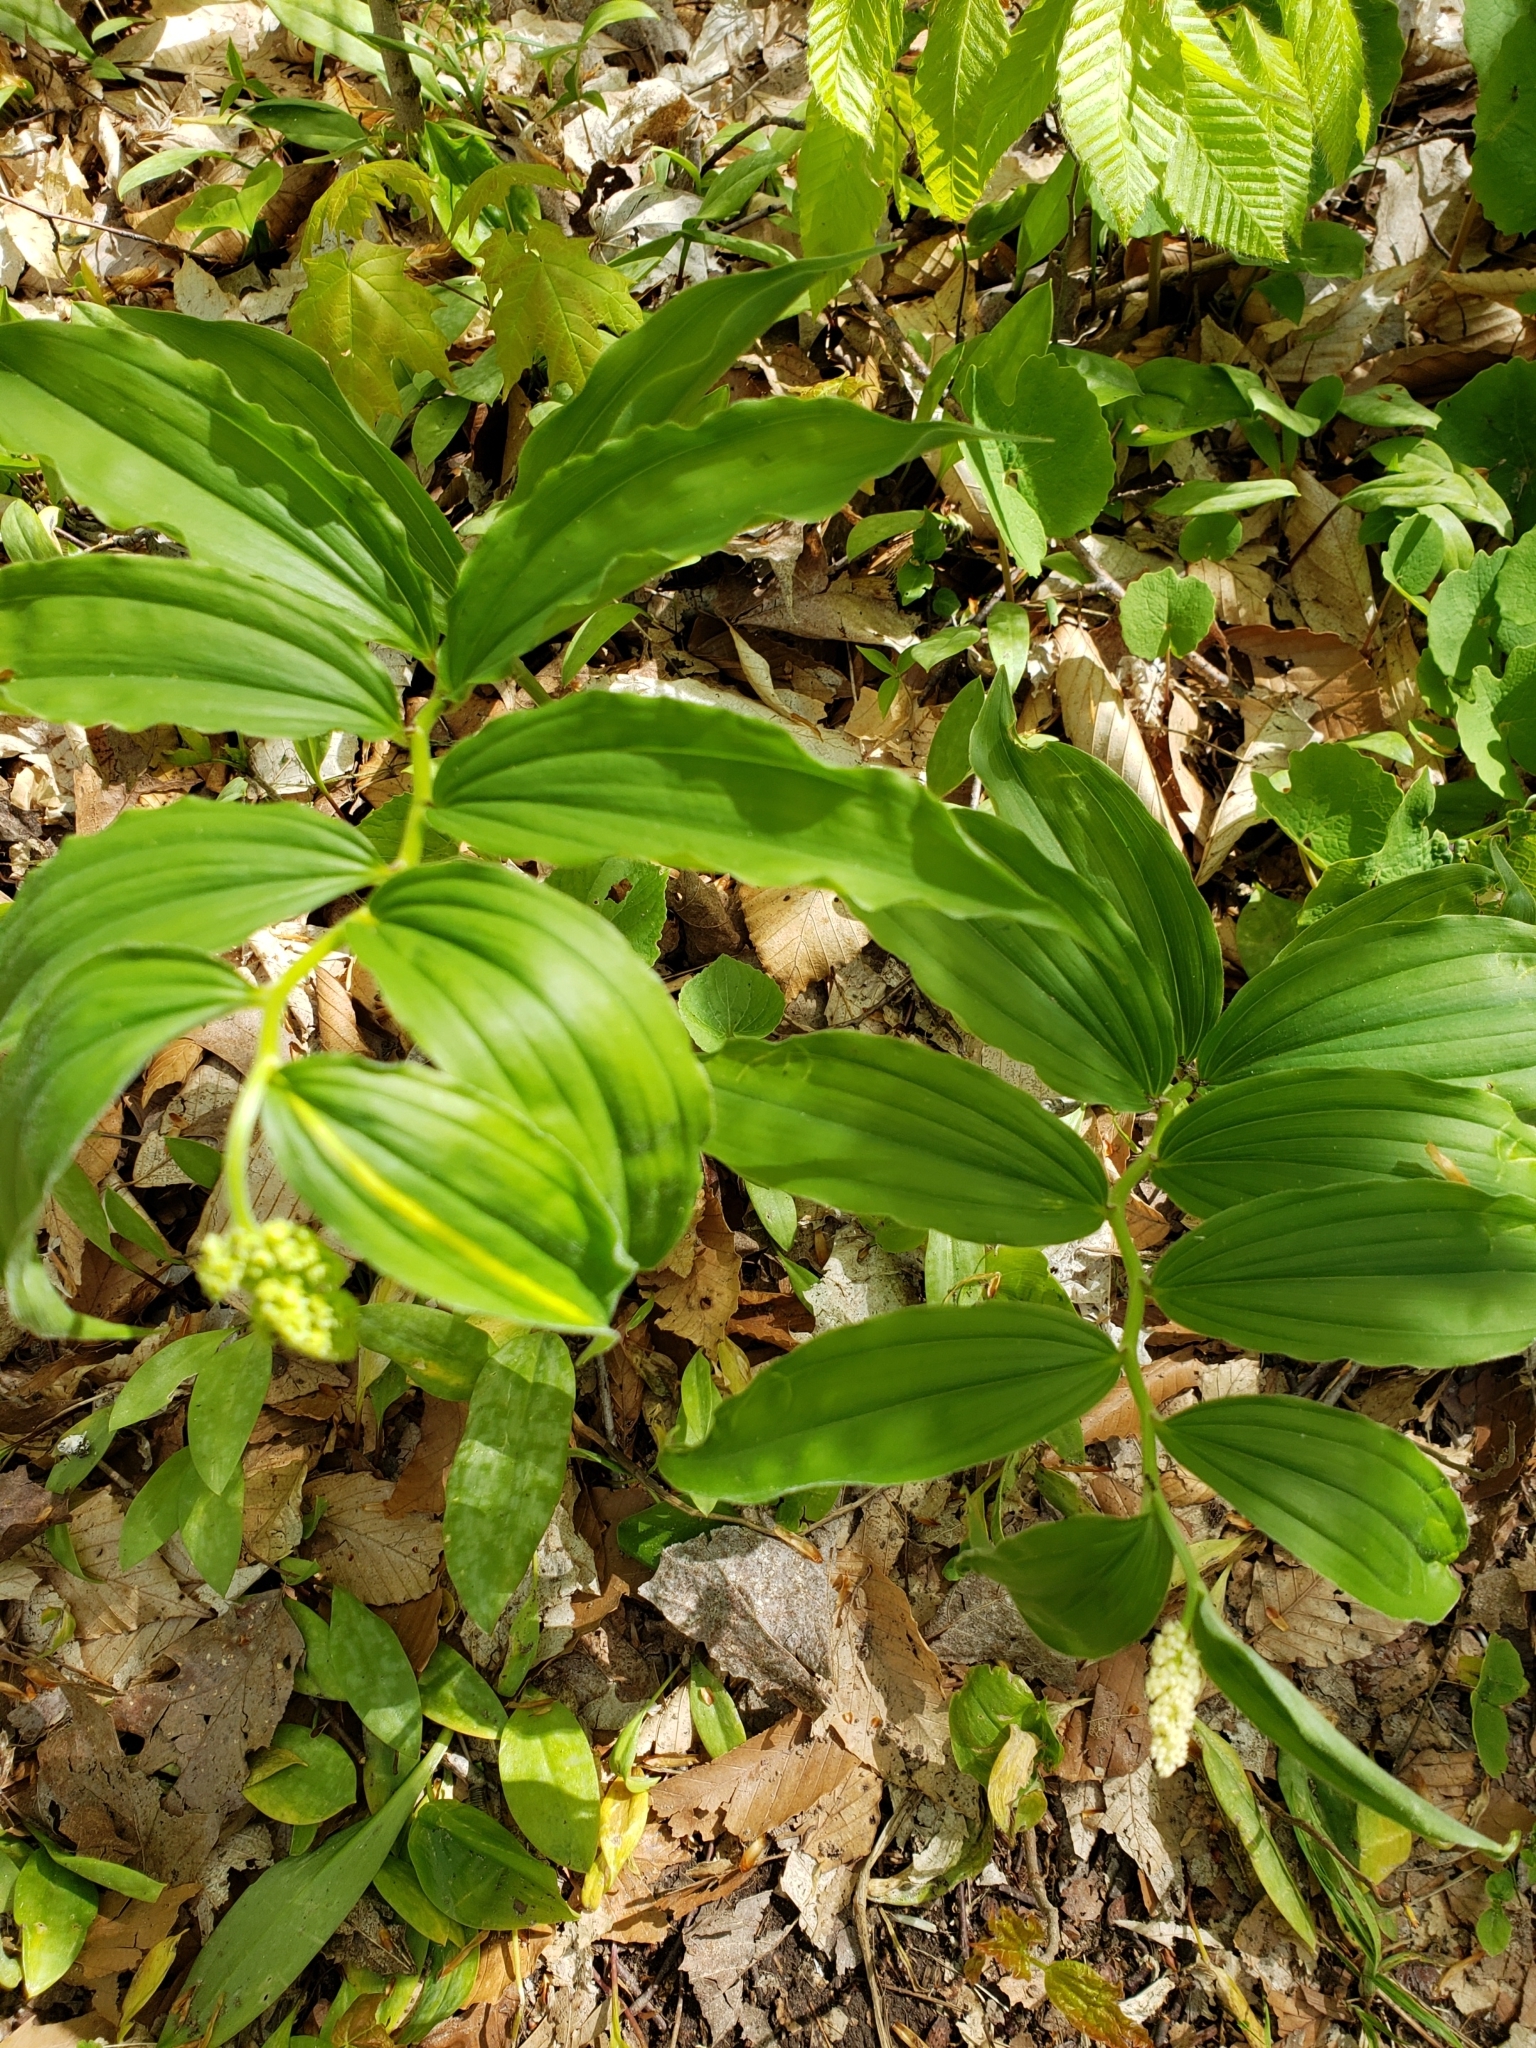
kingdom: Plantae
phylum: Tracheophyta
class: Liliopsida
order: Asparagales
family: Asparagaceae
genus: Maianthemum
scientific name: Maianthemum racemosum
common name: False spikenard
